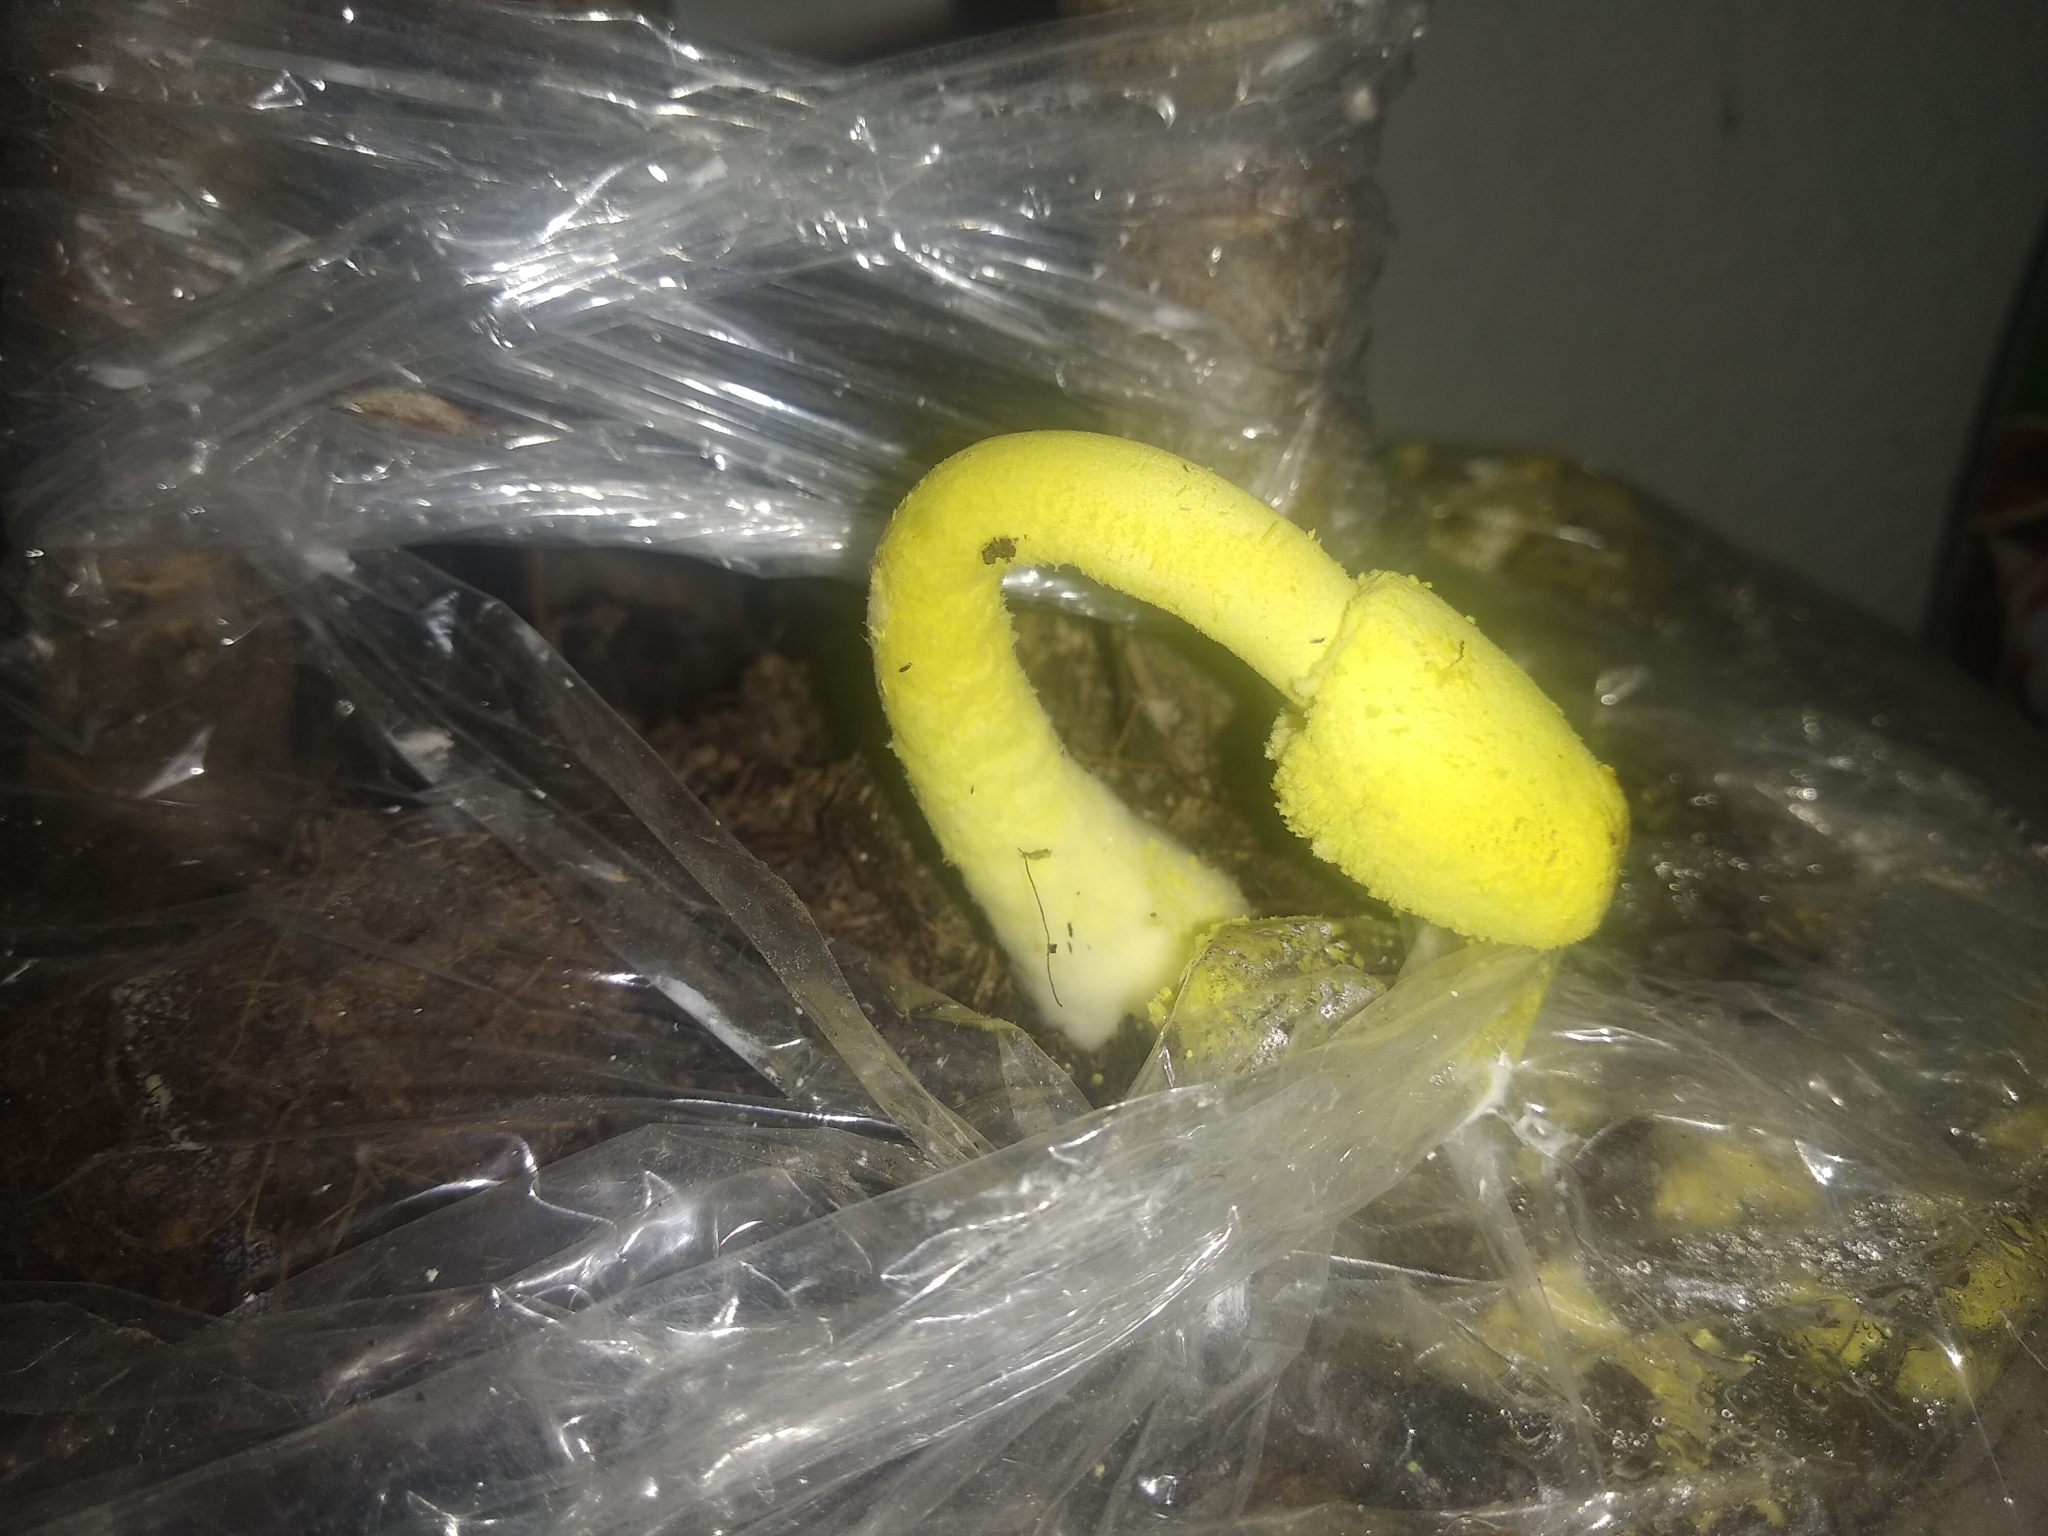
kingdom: Fungi
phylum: Basidiomycota
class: Agaricomycetes
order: Agaricales
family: Agaricaceae
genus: Leucocoprinus
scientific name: Leucocoprinus birnbaumii
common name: Plantpot dapperling
